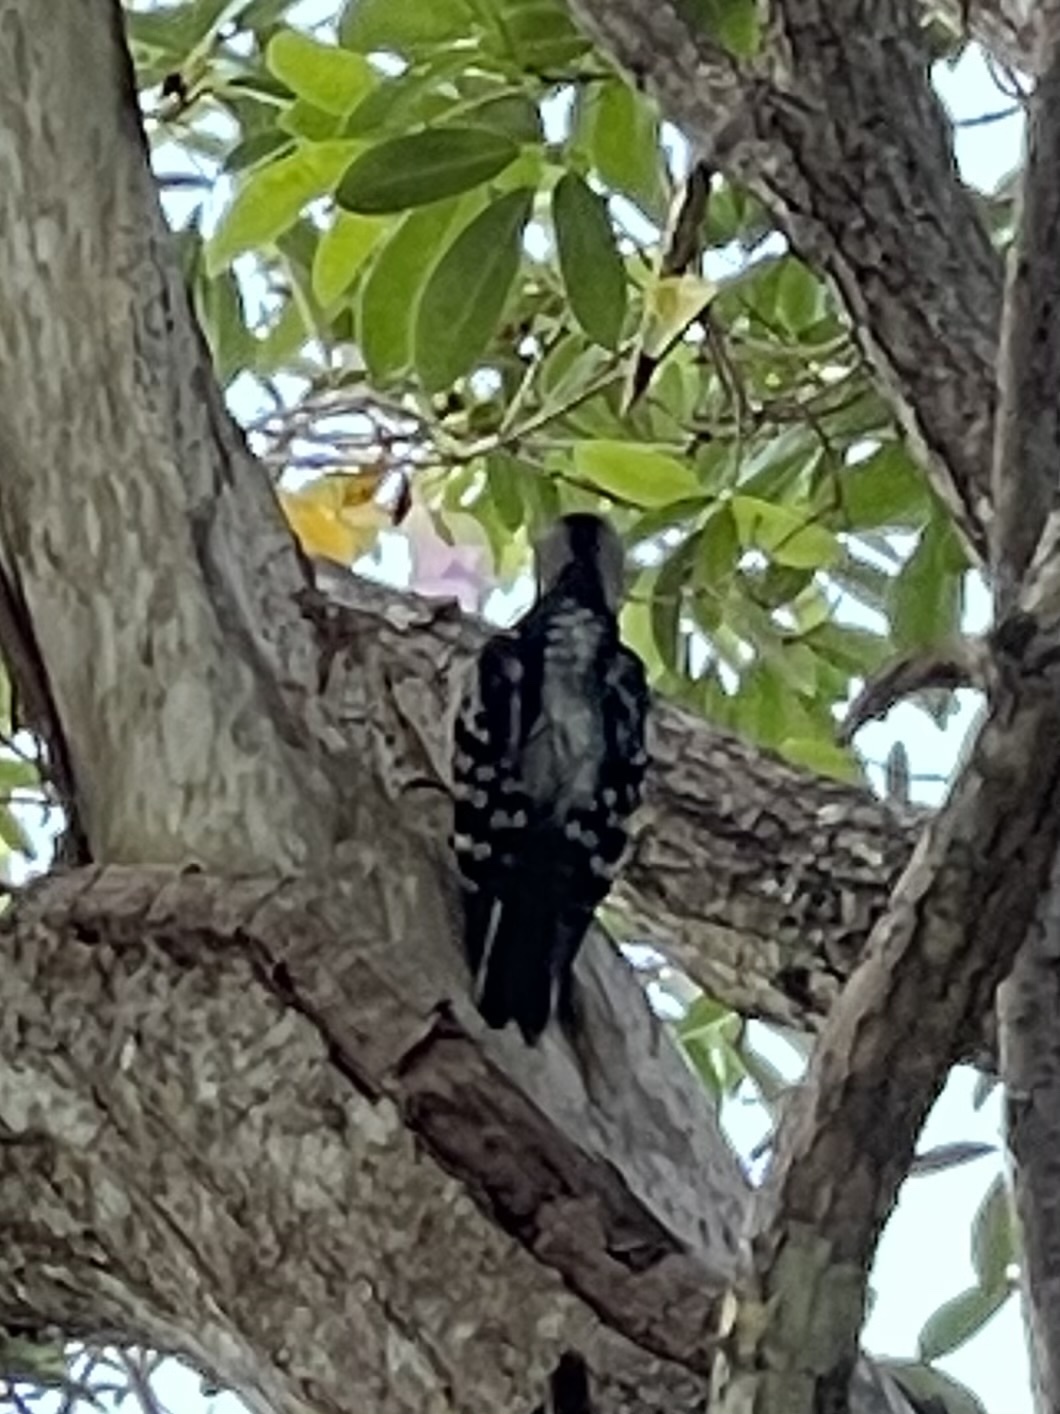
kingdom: Animalia
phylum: Chordata
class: Aves
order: Piciformes
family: Picidae
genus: Dryobates
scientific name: Dryobates pubescens
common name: Downy woodpecker
